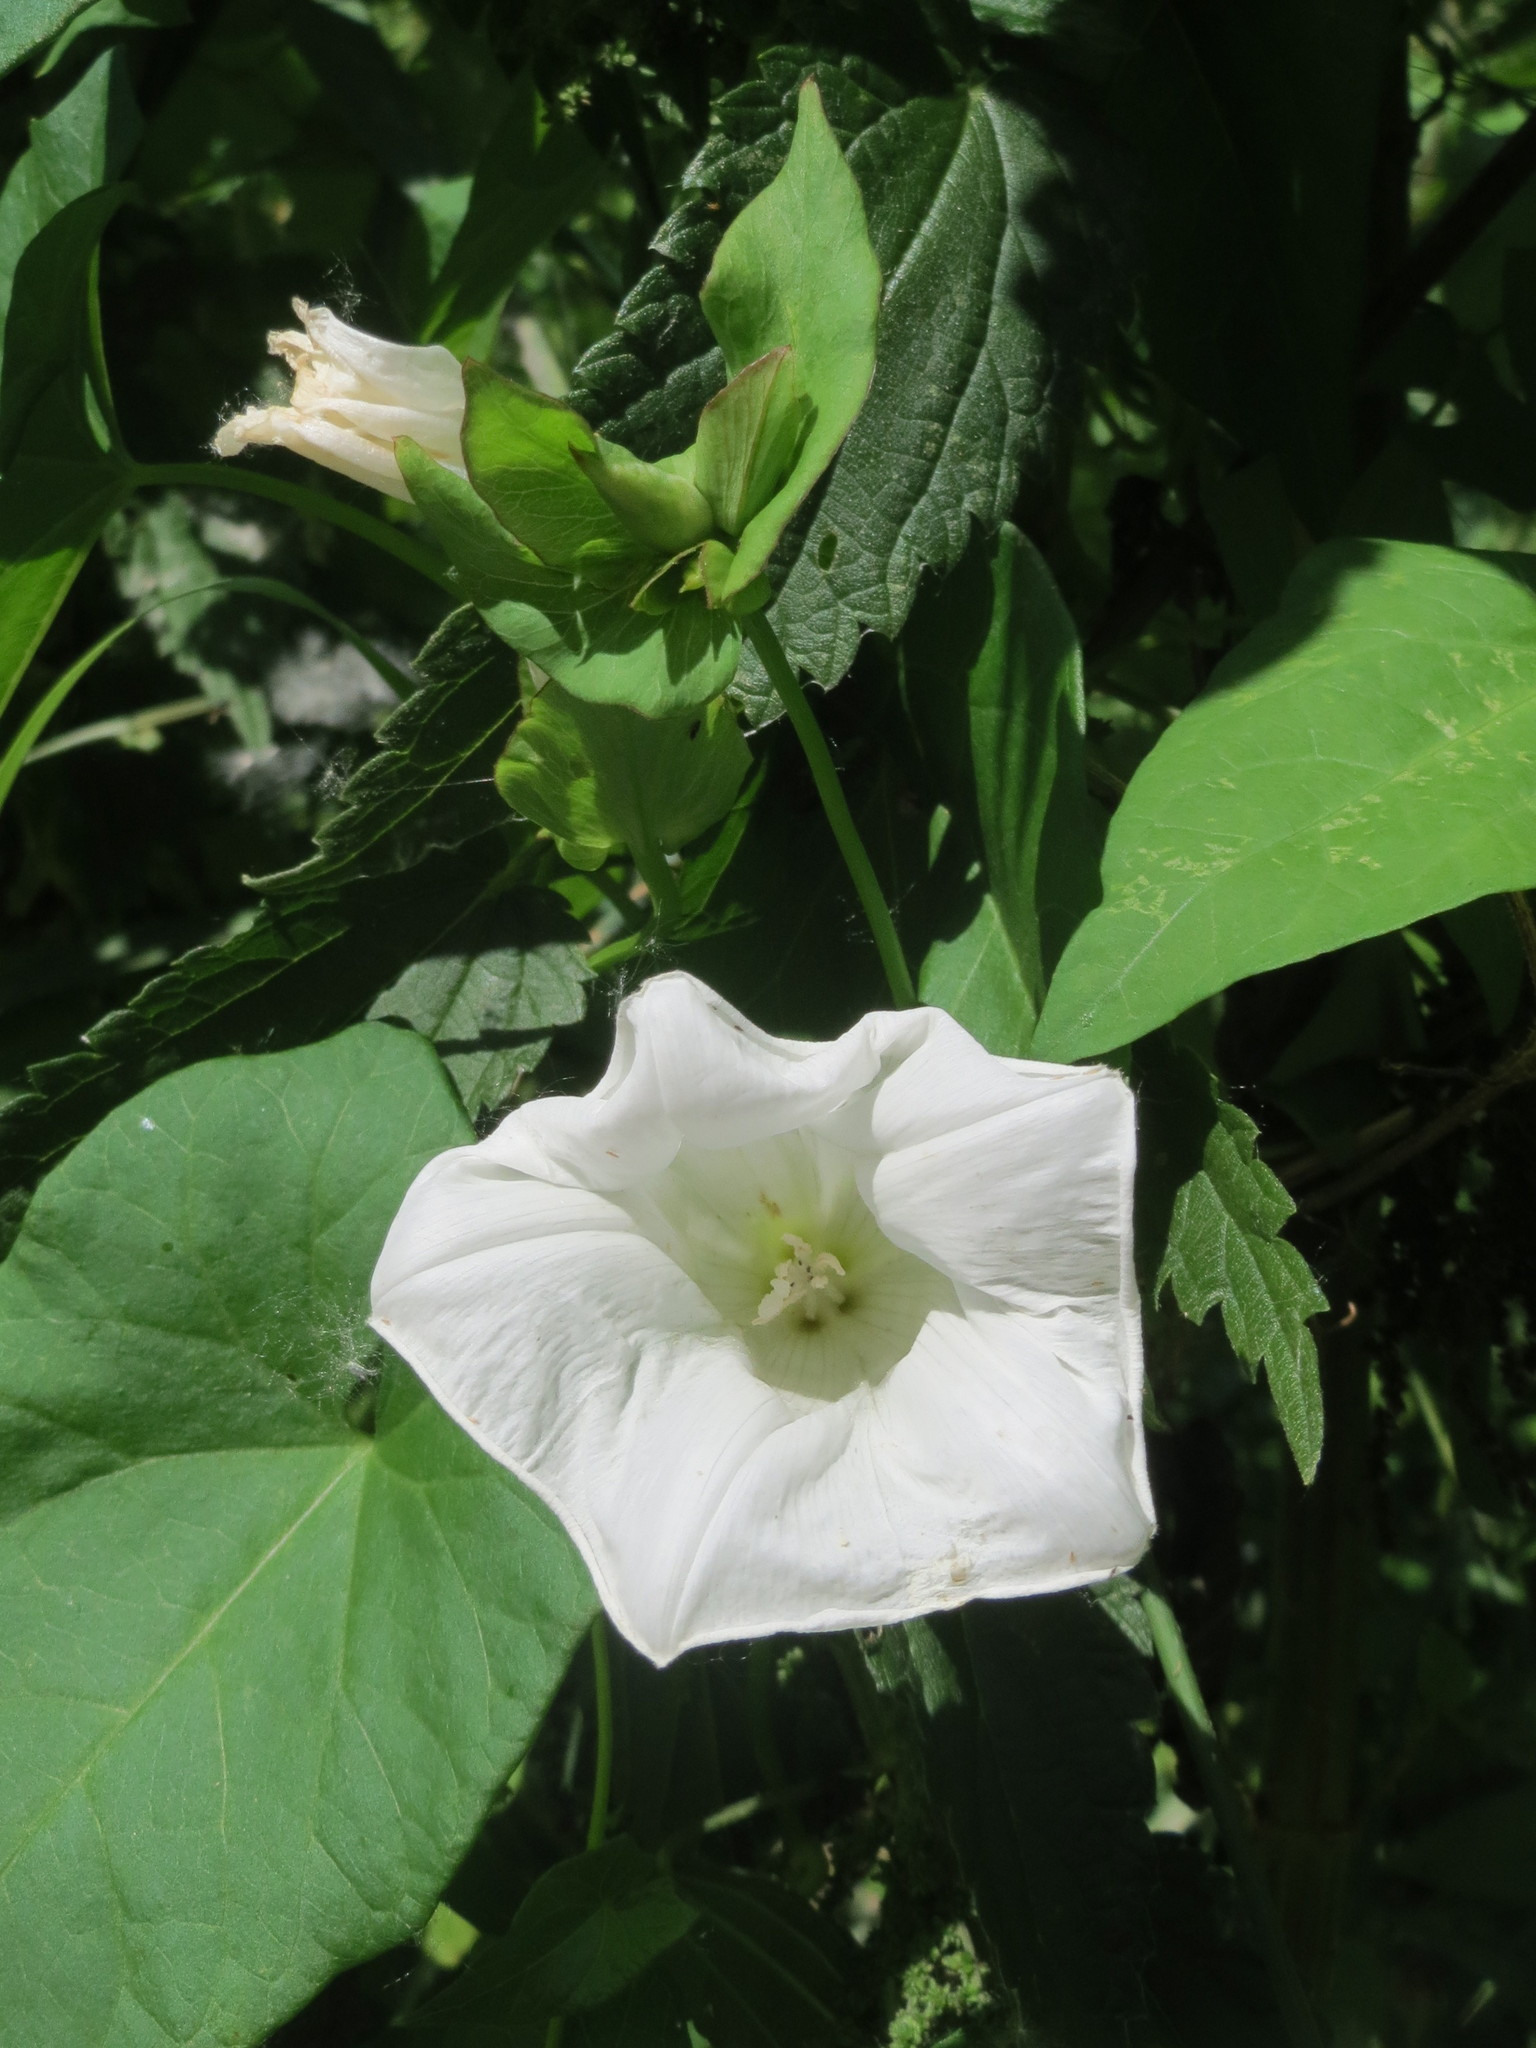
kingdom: Plantae
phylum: Tracheophyta
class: Magnoliopsida
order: Solanales
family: Convolvulaceae
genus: Calystegia
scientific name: Calystegia sepium
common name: Hedge bindweed
